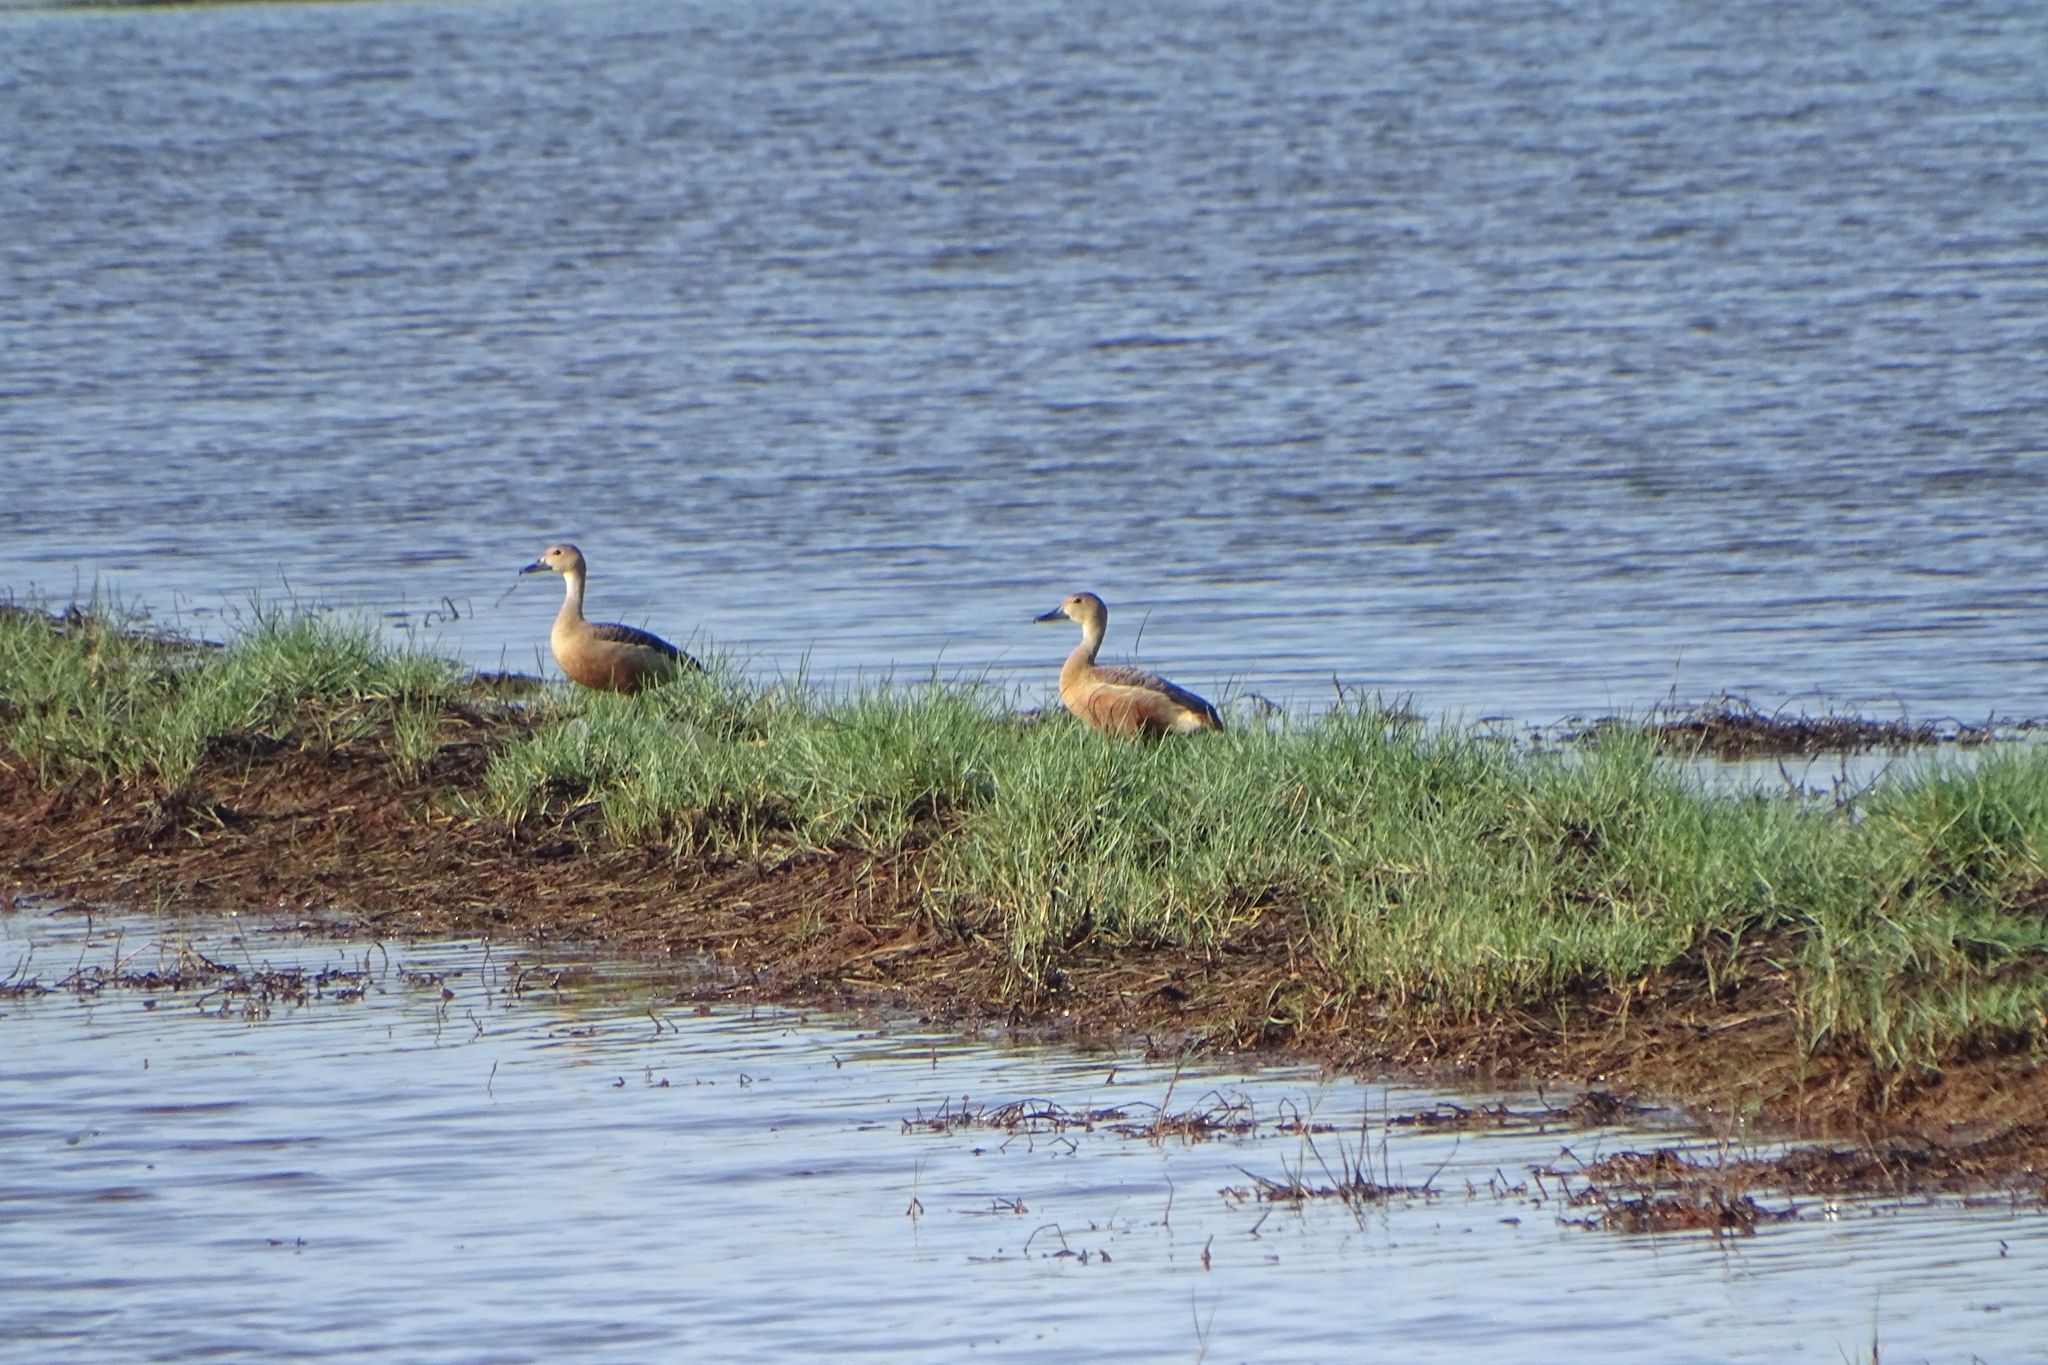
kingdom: Animalia
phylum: Chordata
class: Aves
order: Anseriformes
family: Anatidae
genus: Dendrocygna
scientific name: Dendrocygna javanica
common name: Lesser whistling-duck
